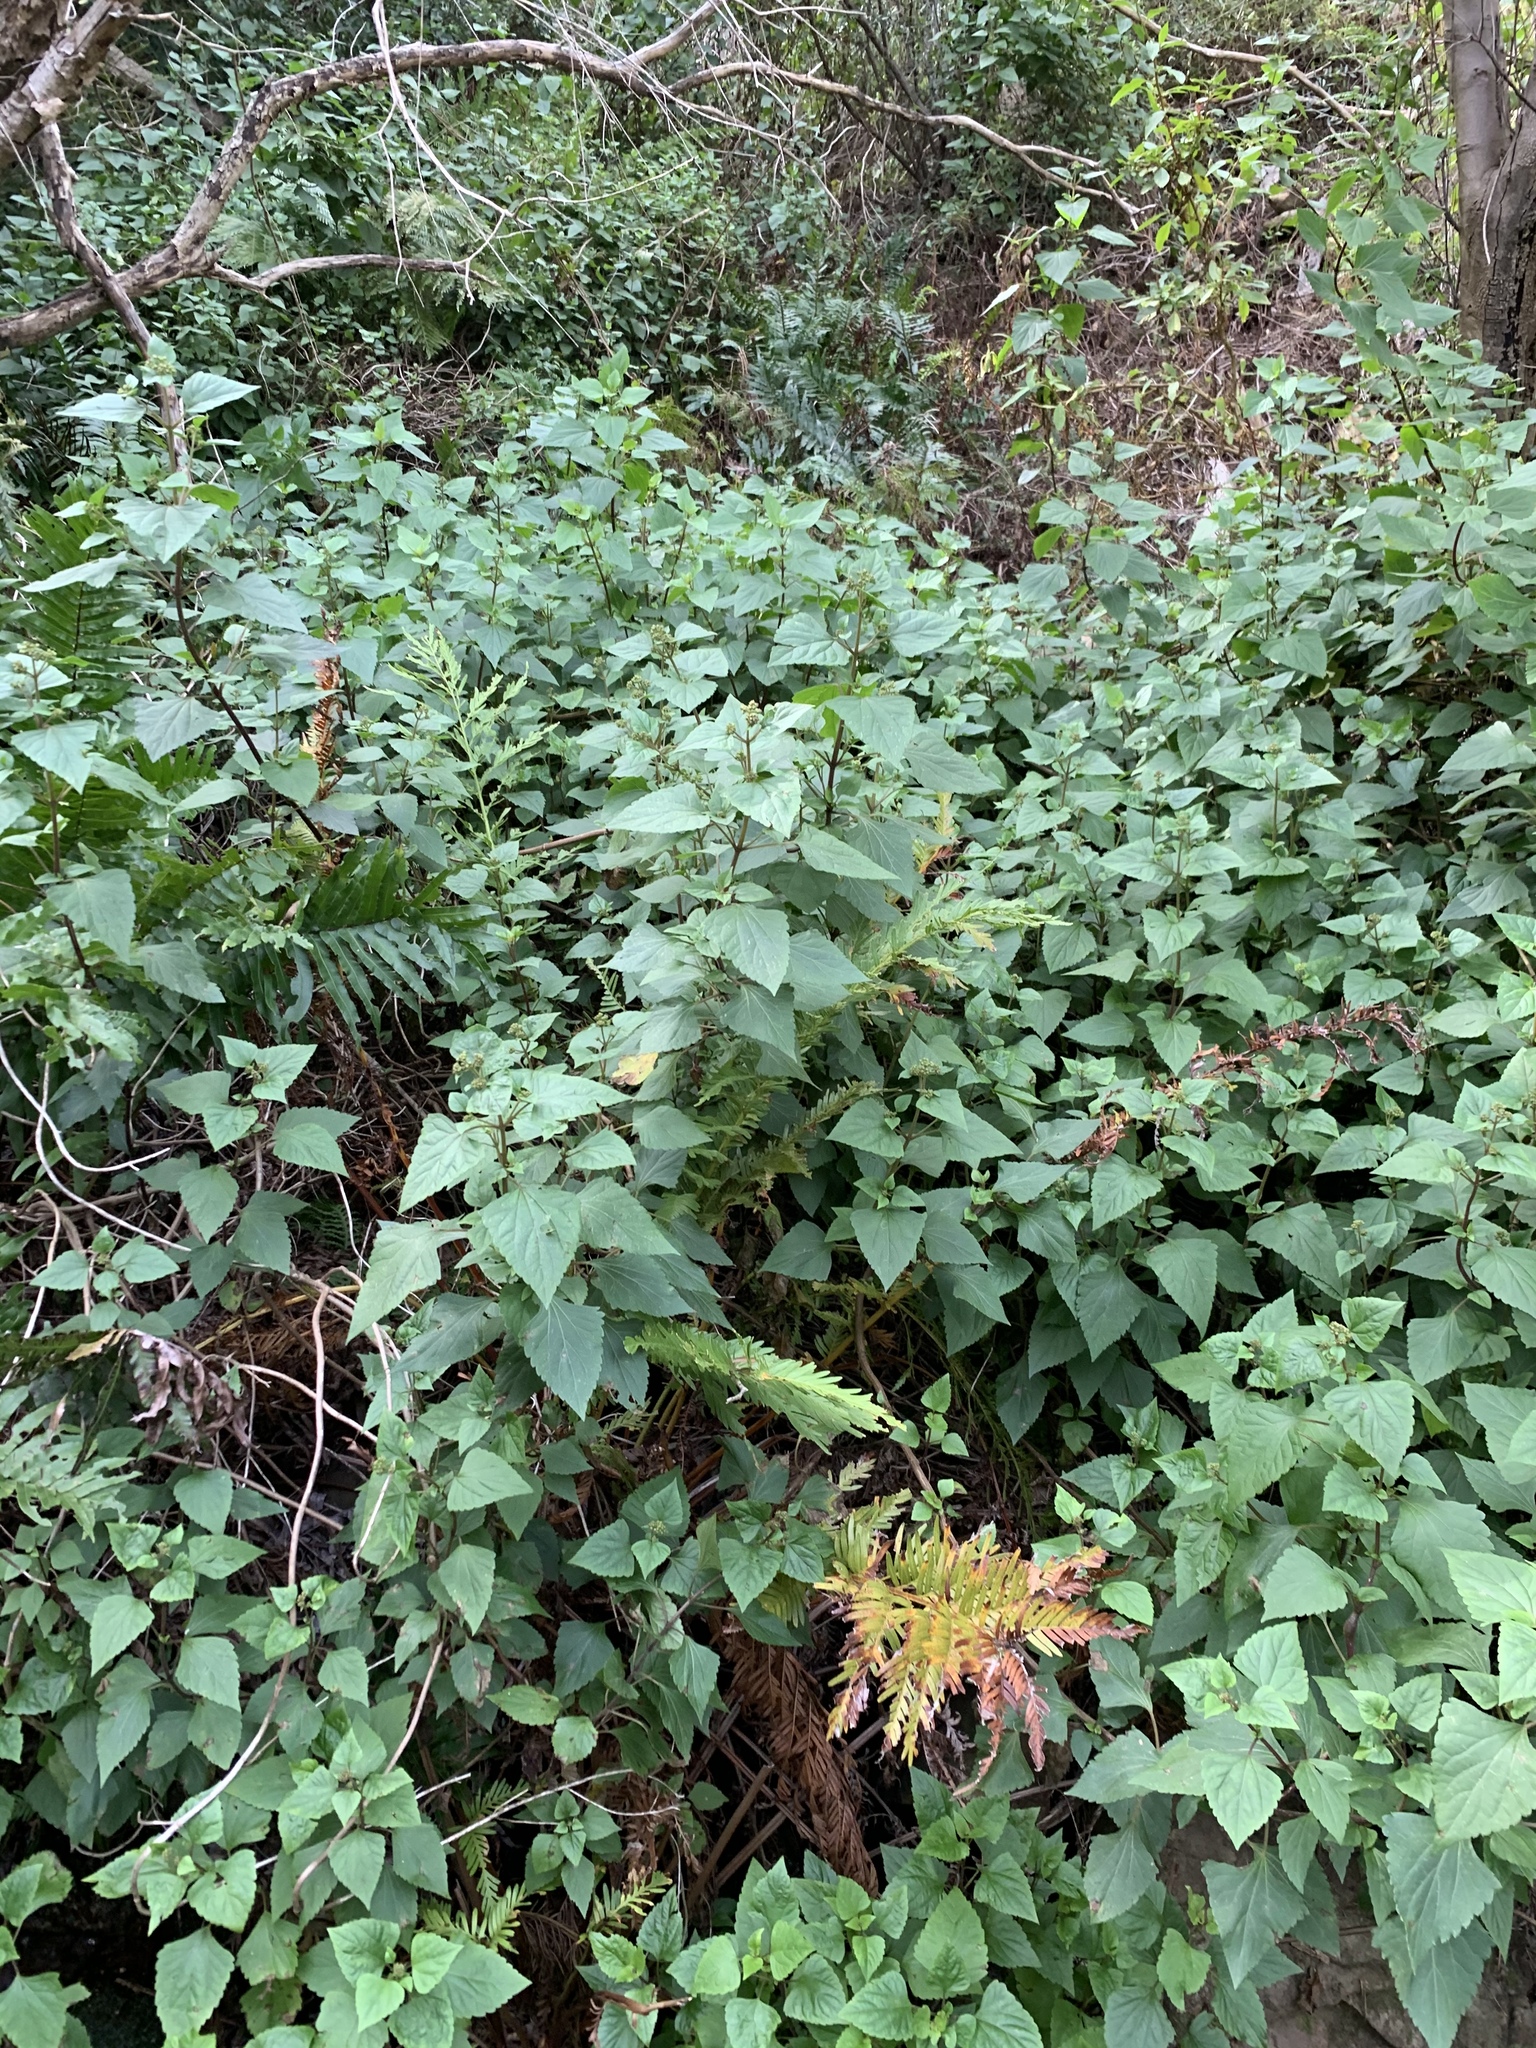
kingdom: Plantae
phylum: Tracheophyta
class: Magnoliopsida
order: Asterales
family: Asteraceae
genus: Ageratina
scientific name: Ageratina adenophora
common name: Sticky snakeroot
